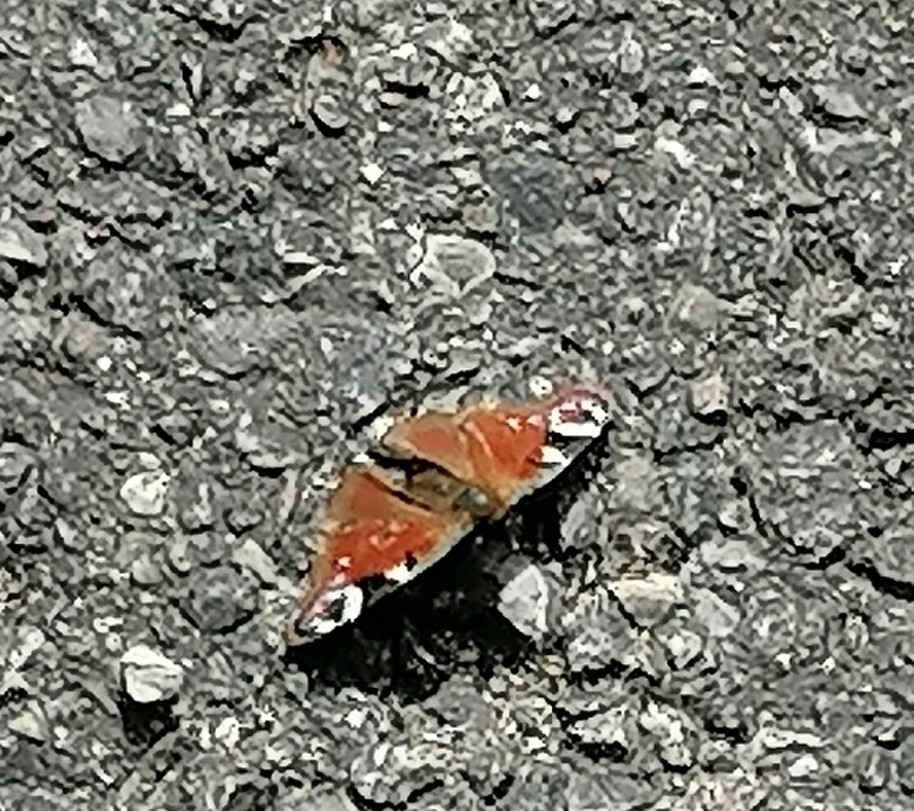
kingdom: Animalia
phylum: Arthropoda
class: Insecta
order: Lepidoptera
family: Nymphalidae
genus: Aglais
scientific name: Aglais io
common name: Peacock
